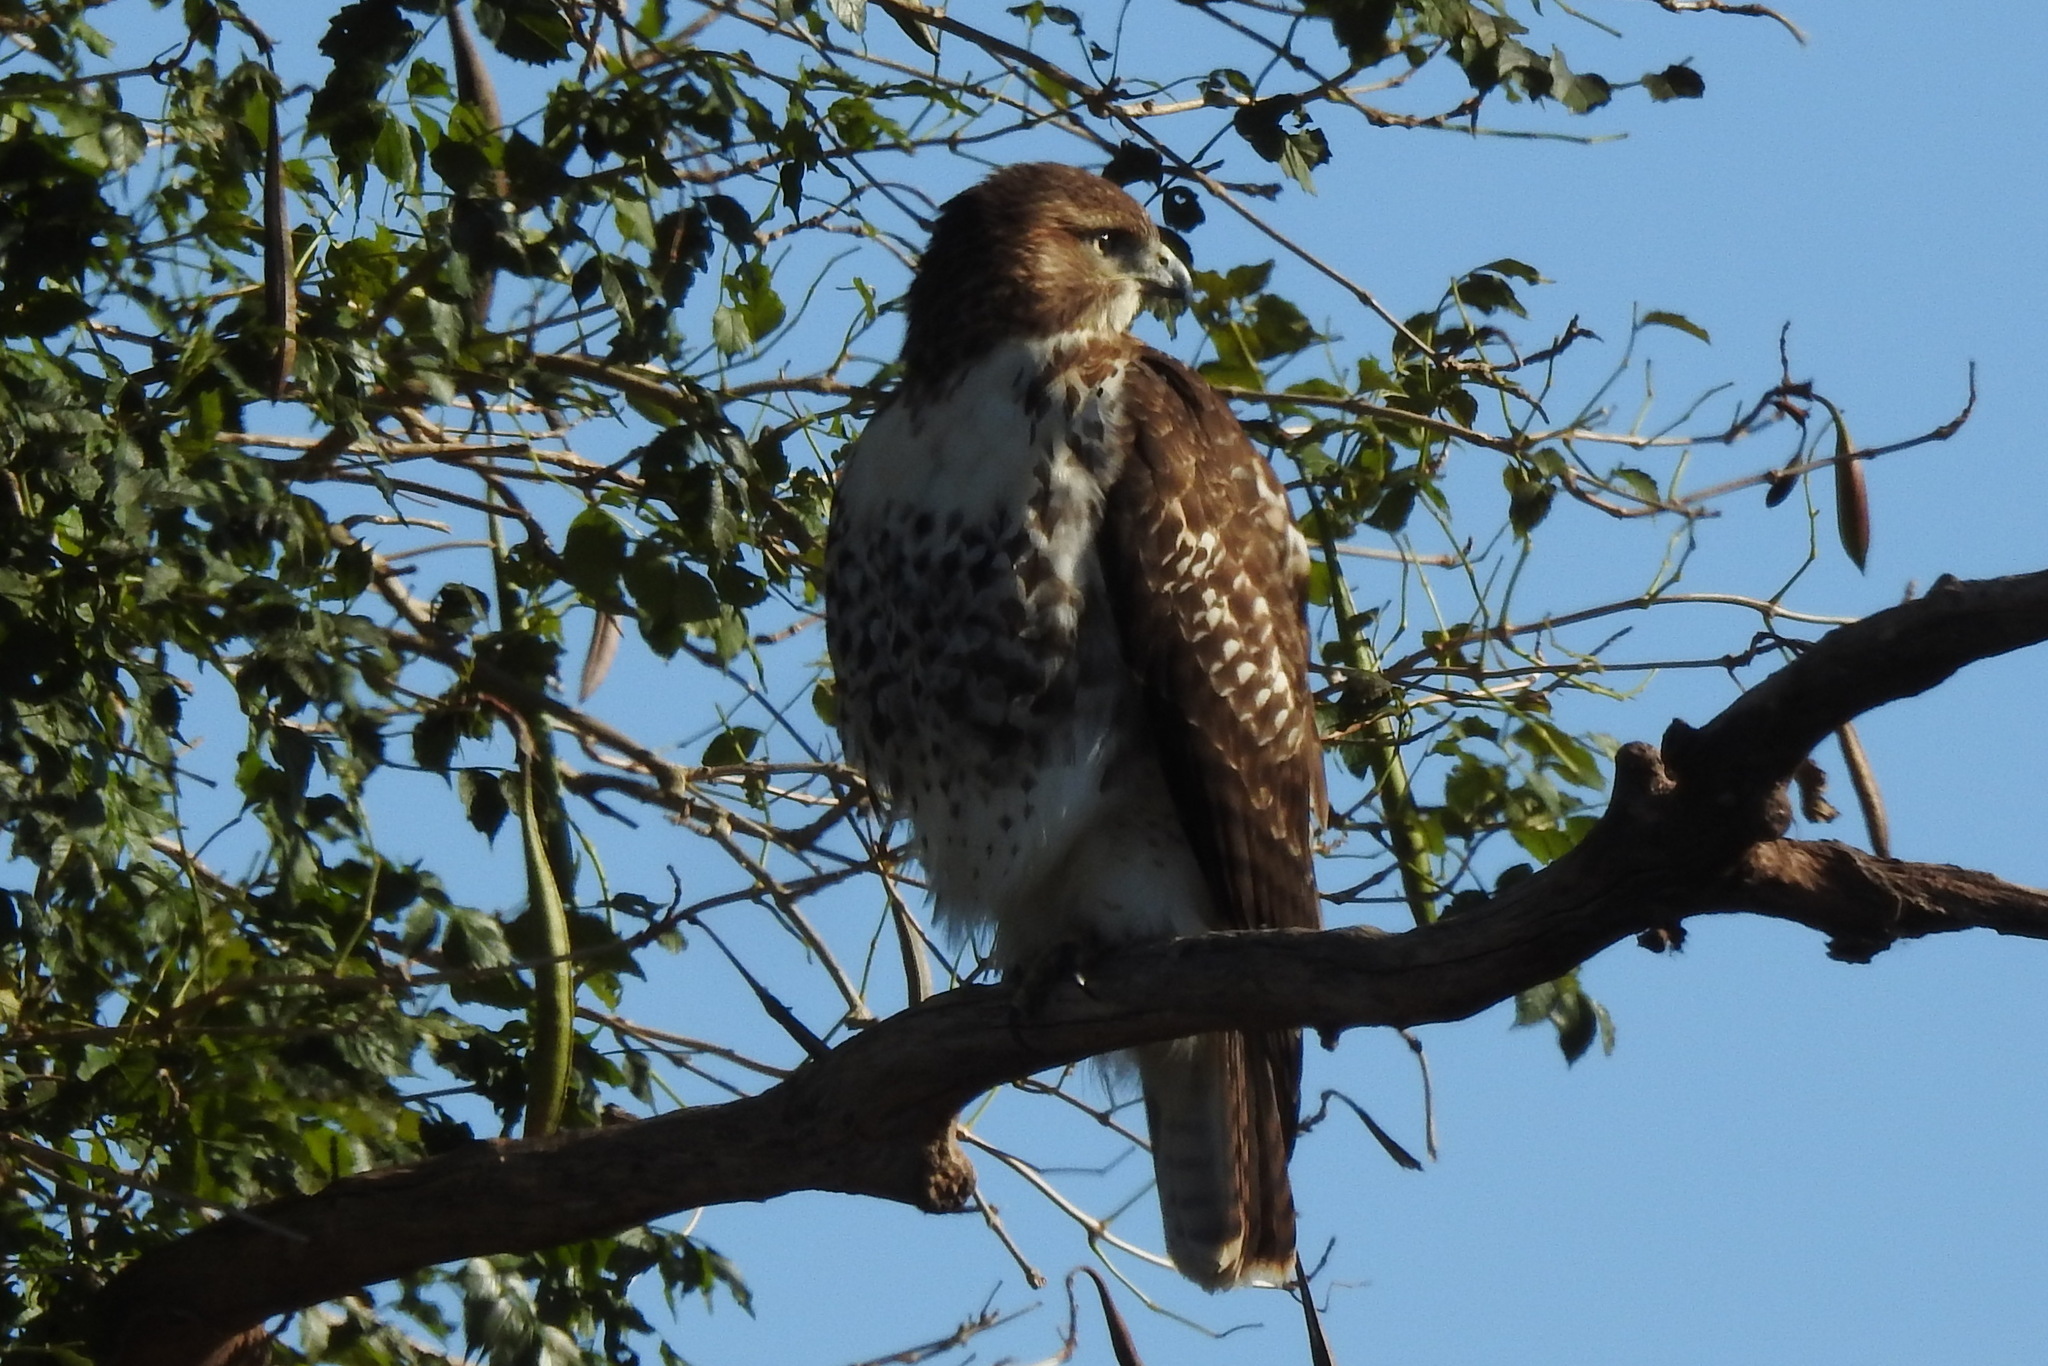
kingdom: Animalia
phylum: Chordata
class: Aves
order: Accipitriformes
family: Accipitridae
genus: Buteo
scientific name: Buteo jamaicensis
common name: Red-tailed hawk
